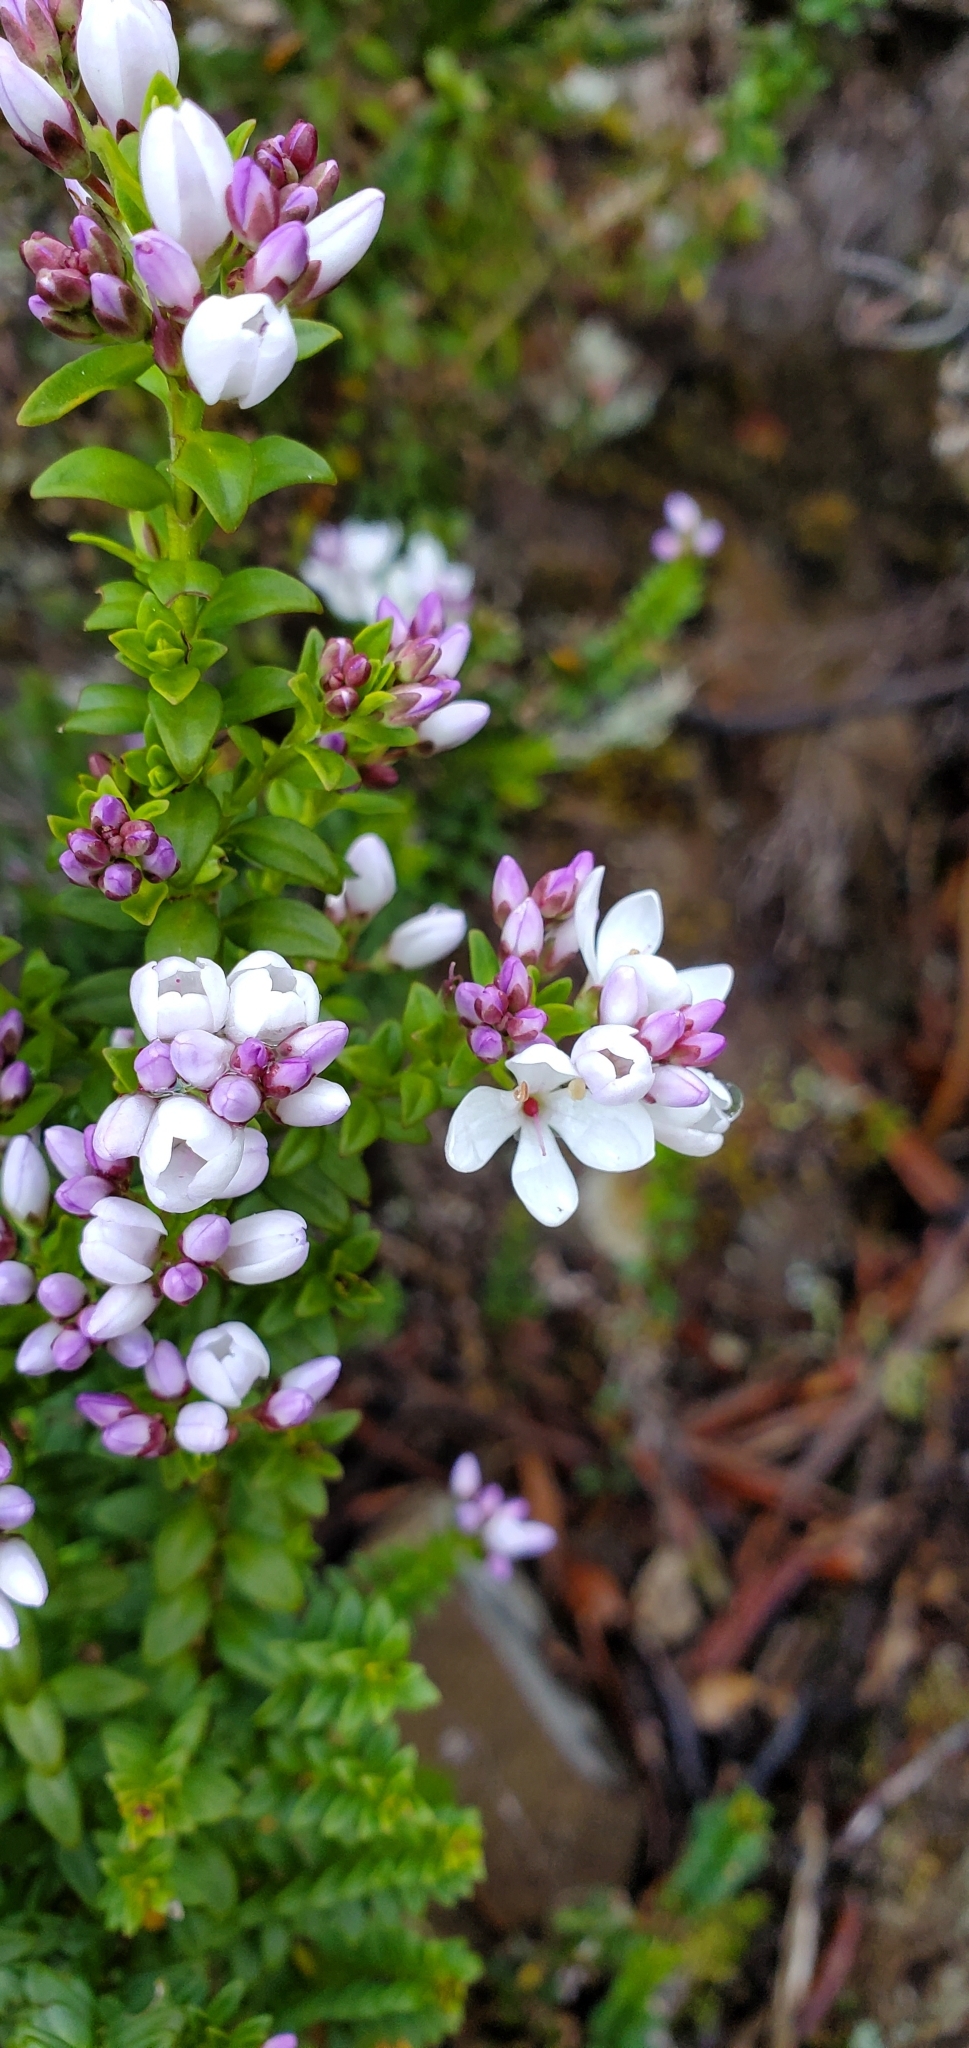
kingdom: Plantae
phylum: Tracheophyta
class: Magnoliopsida
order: Lamiales
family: Plantaginaceae
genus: Veronica
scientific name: Veronica formosa
